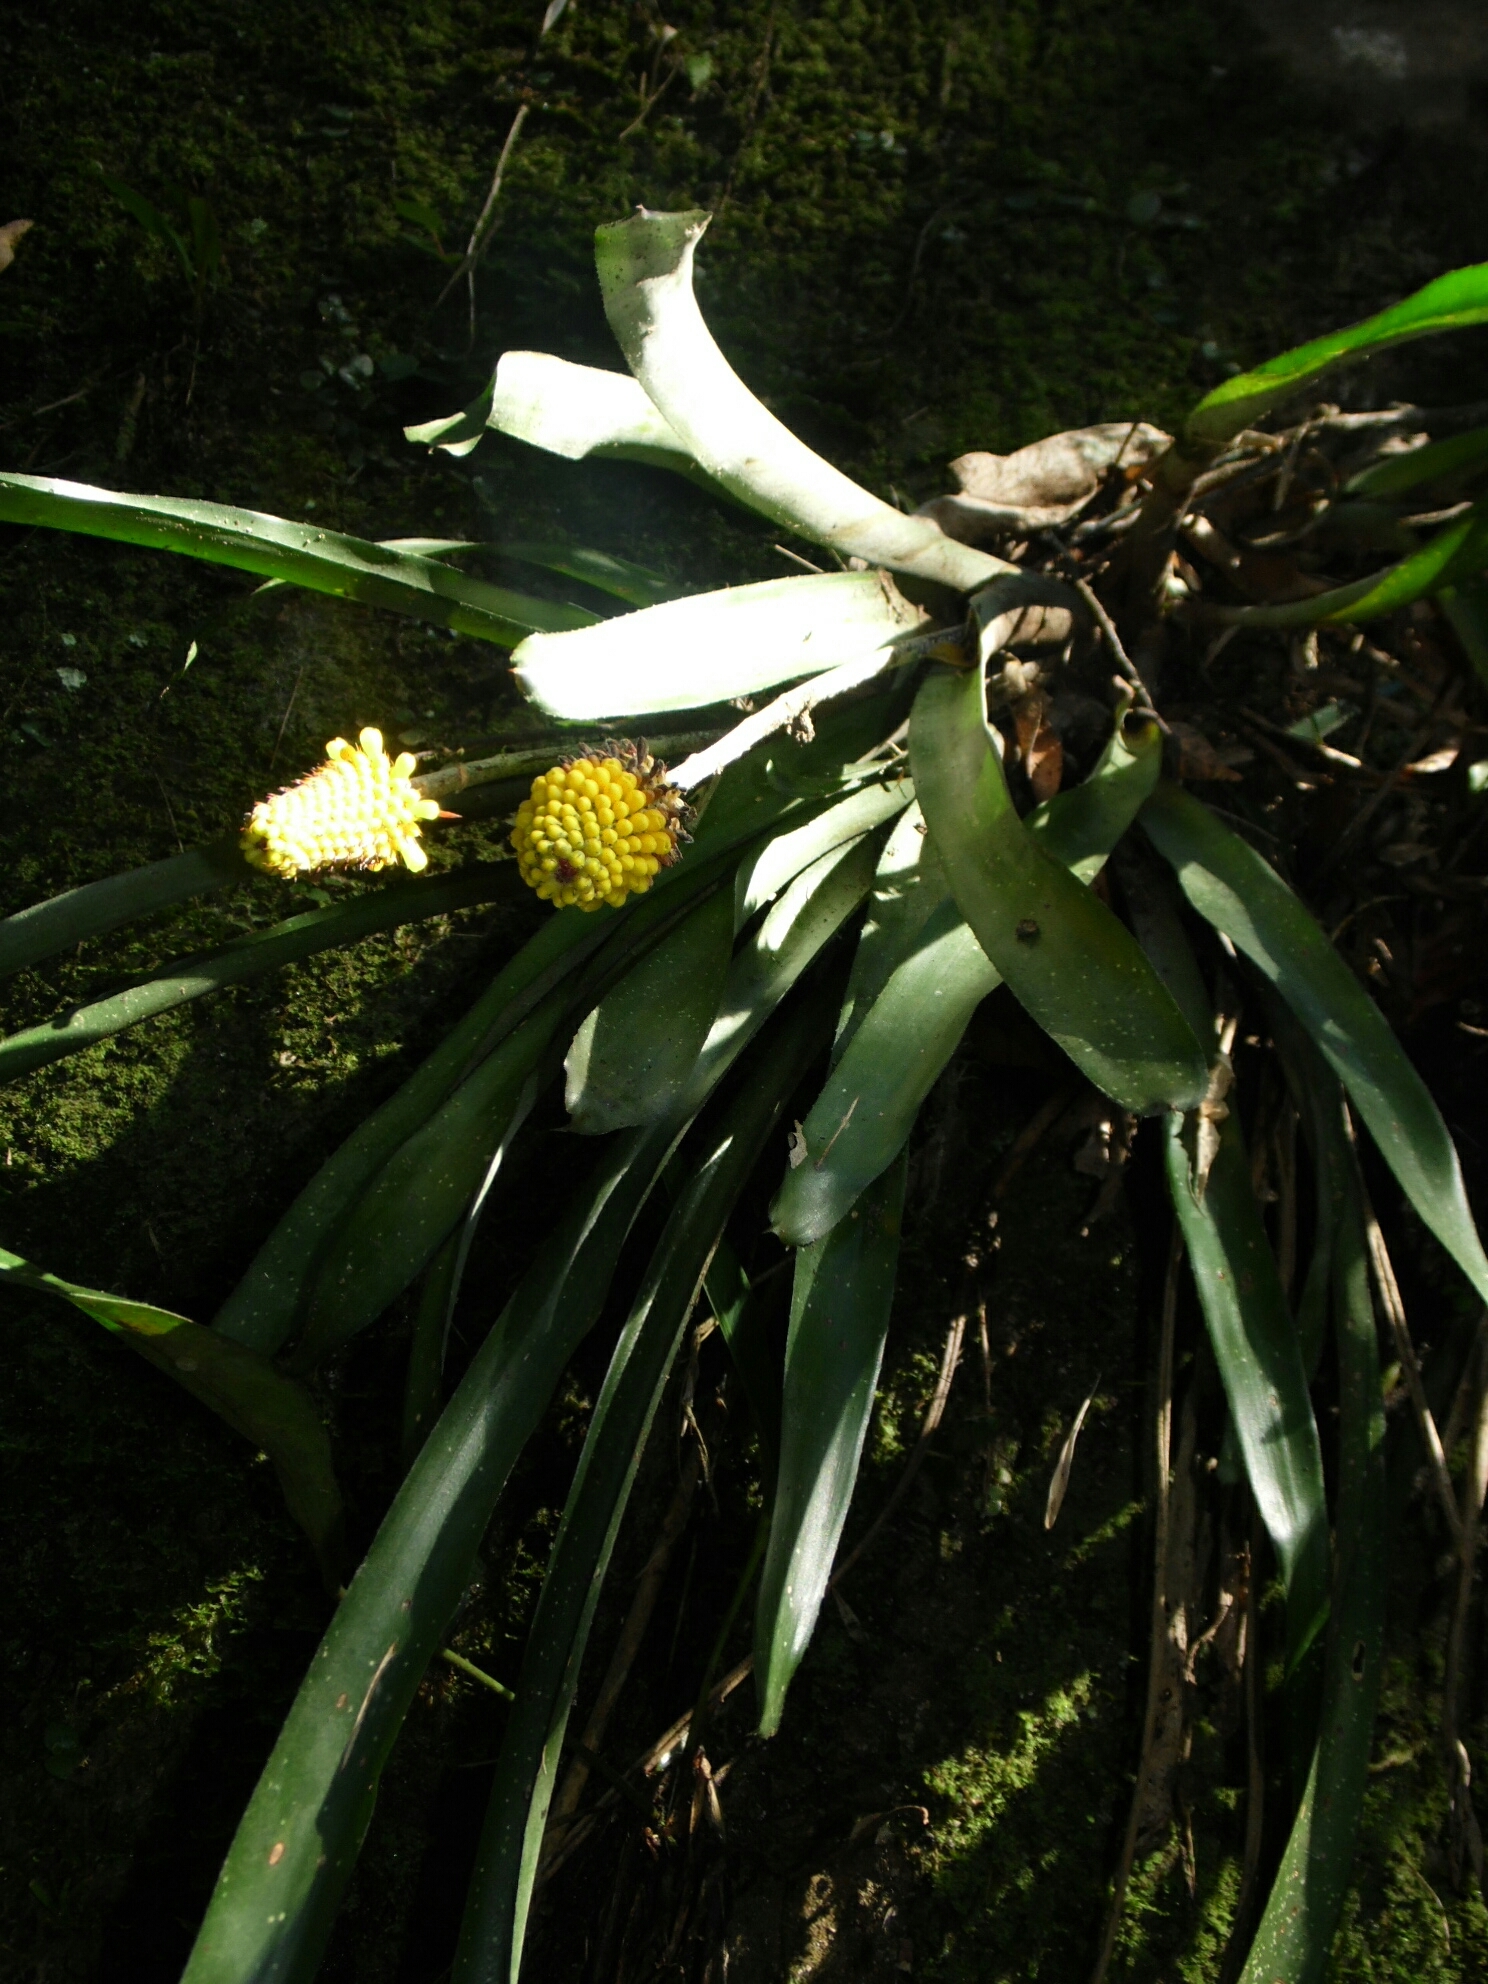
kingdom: Plantae
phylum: Tracheophyta
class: Liliopsida
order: Poales
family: Bromeliaceae
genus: Aechmea
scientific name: Aechmea calyculata
